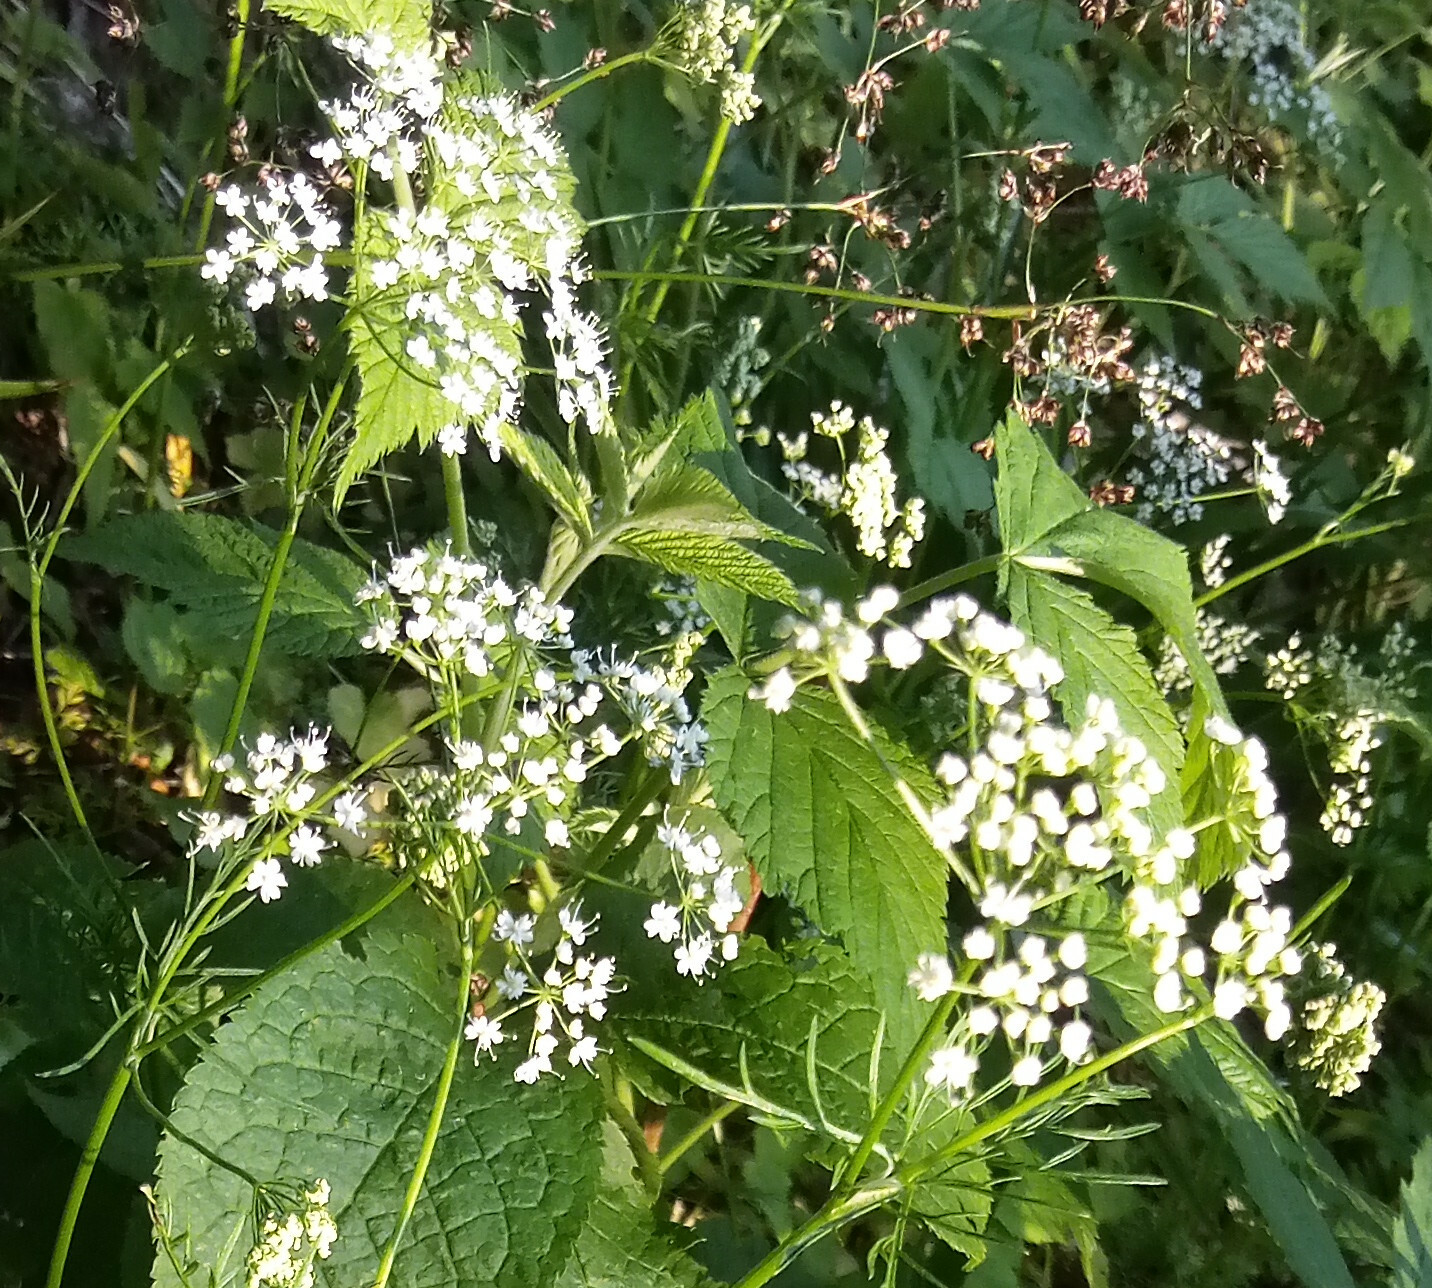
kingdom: Plantae
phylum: Tracheophyta
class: Magnoliopsida
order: Apiales
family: Apiaceae
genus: Conopodium
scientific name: Conopodium majus
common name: Pignut
